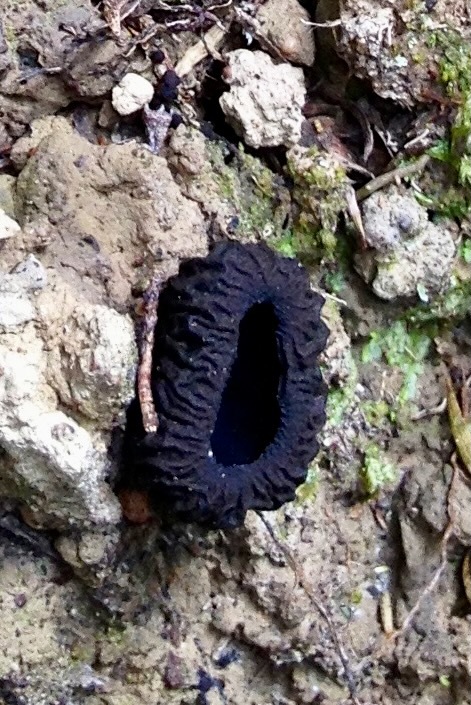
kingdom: Fungi
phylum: Ascomycota
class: Pezizomycetes
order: Pezizales
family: Sarcosomataceae
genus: Plectania
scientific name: Plectania rhytidia
